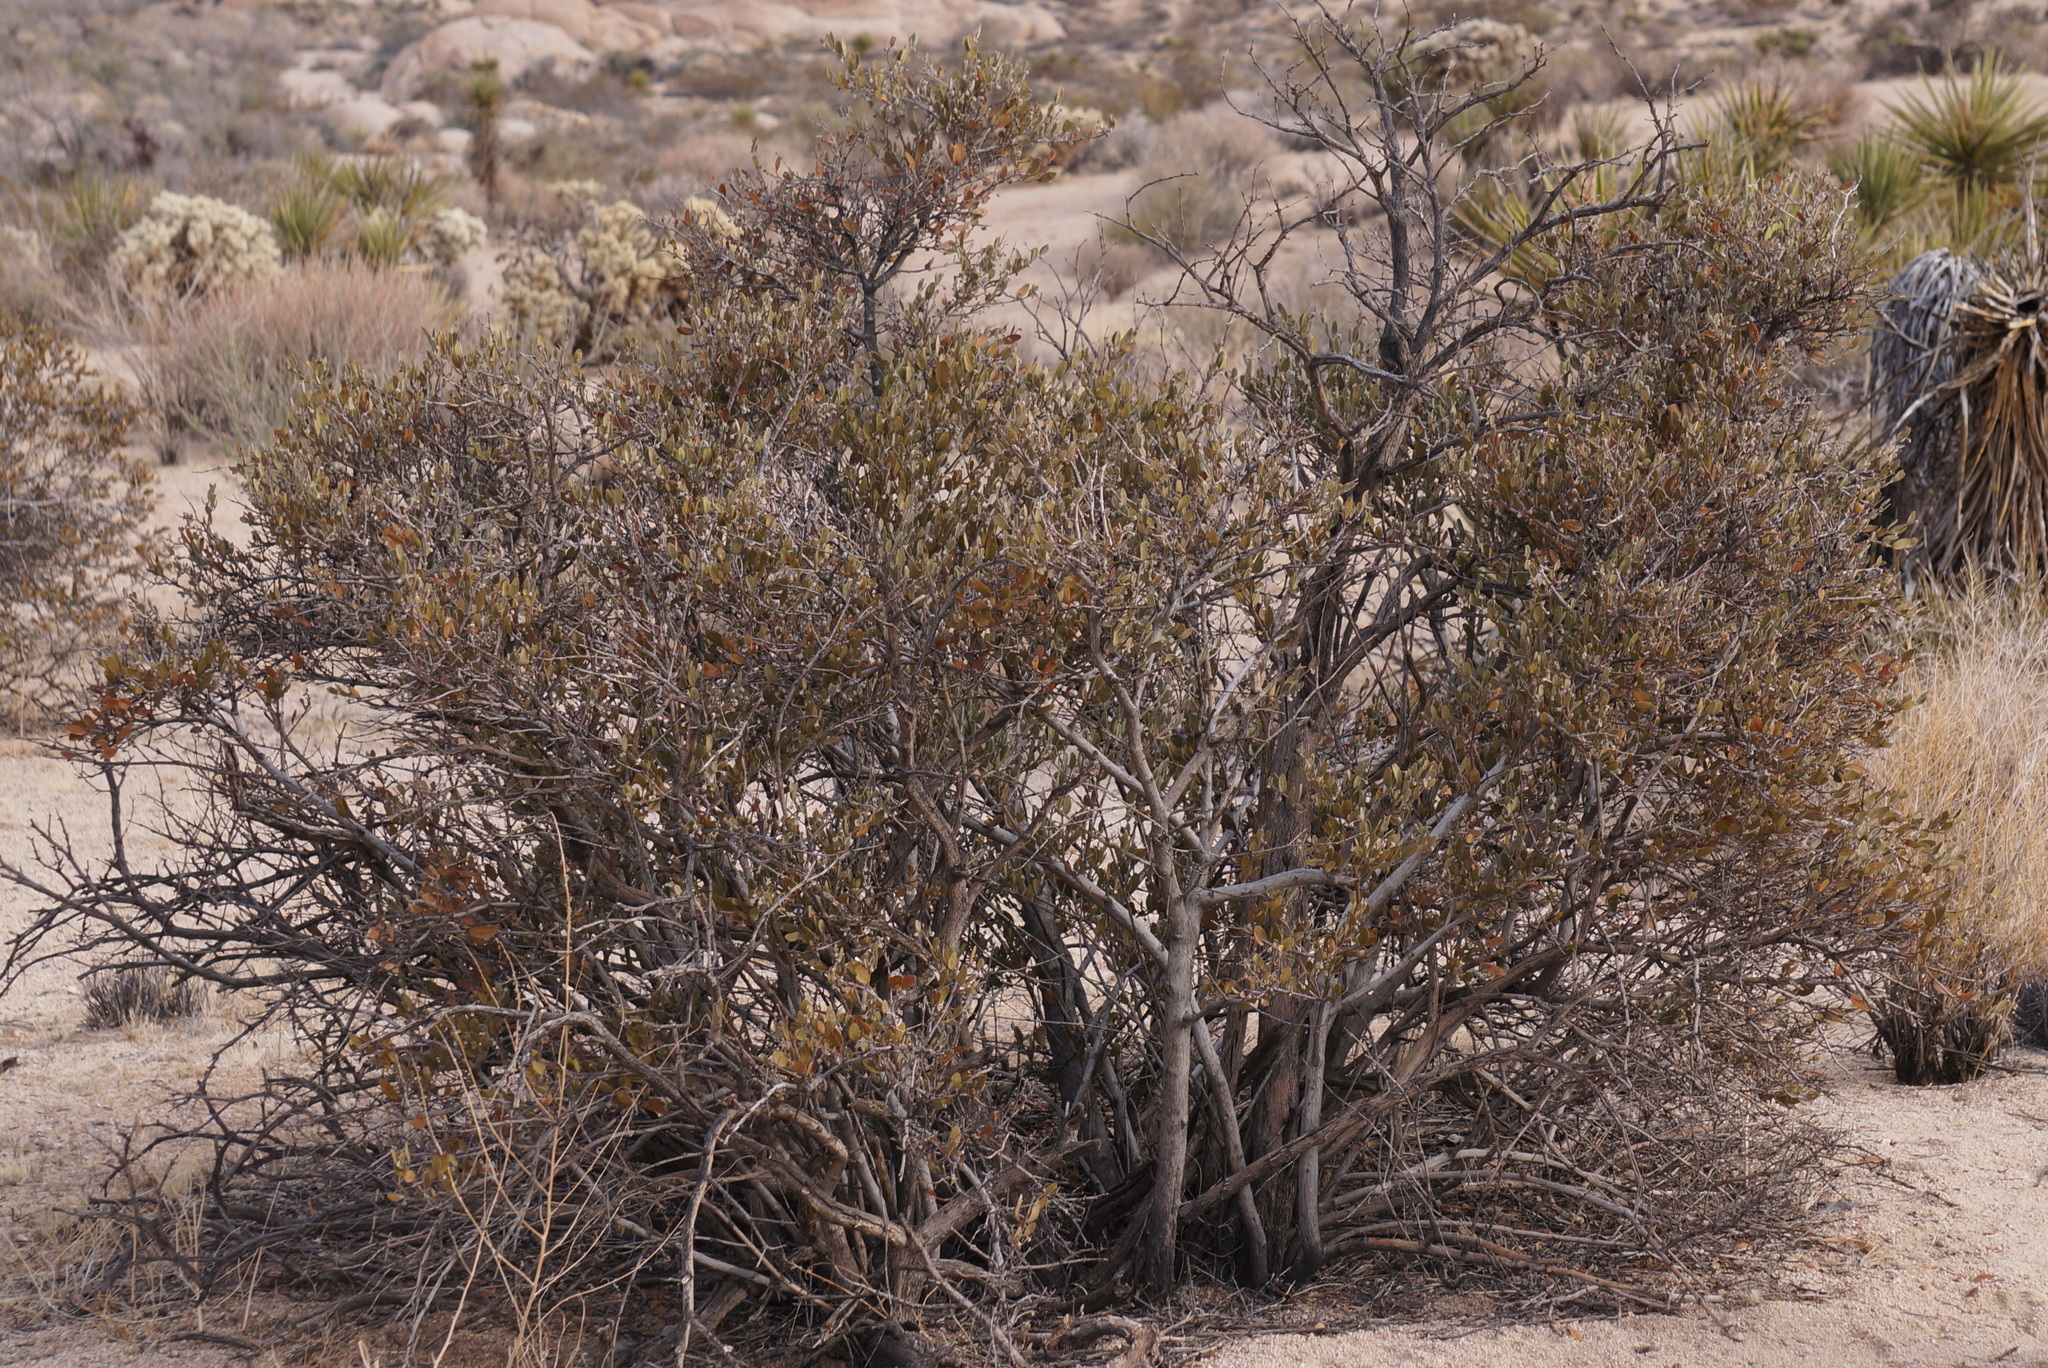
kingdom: Plantae
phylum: Tracheophyta
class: Magnoliopsida
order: Caryophyllales
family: Simmondsiaceae
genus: Simmondsia
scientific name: Simmondsia chinensis
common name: Jojoba
